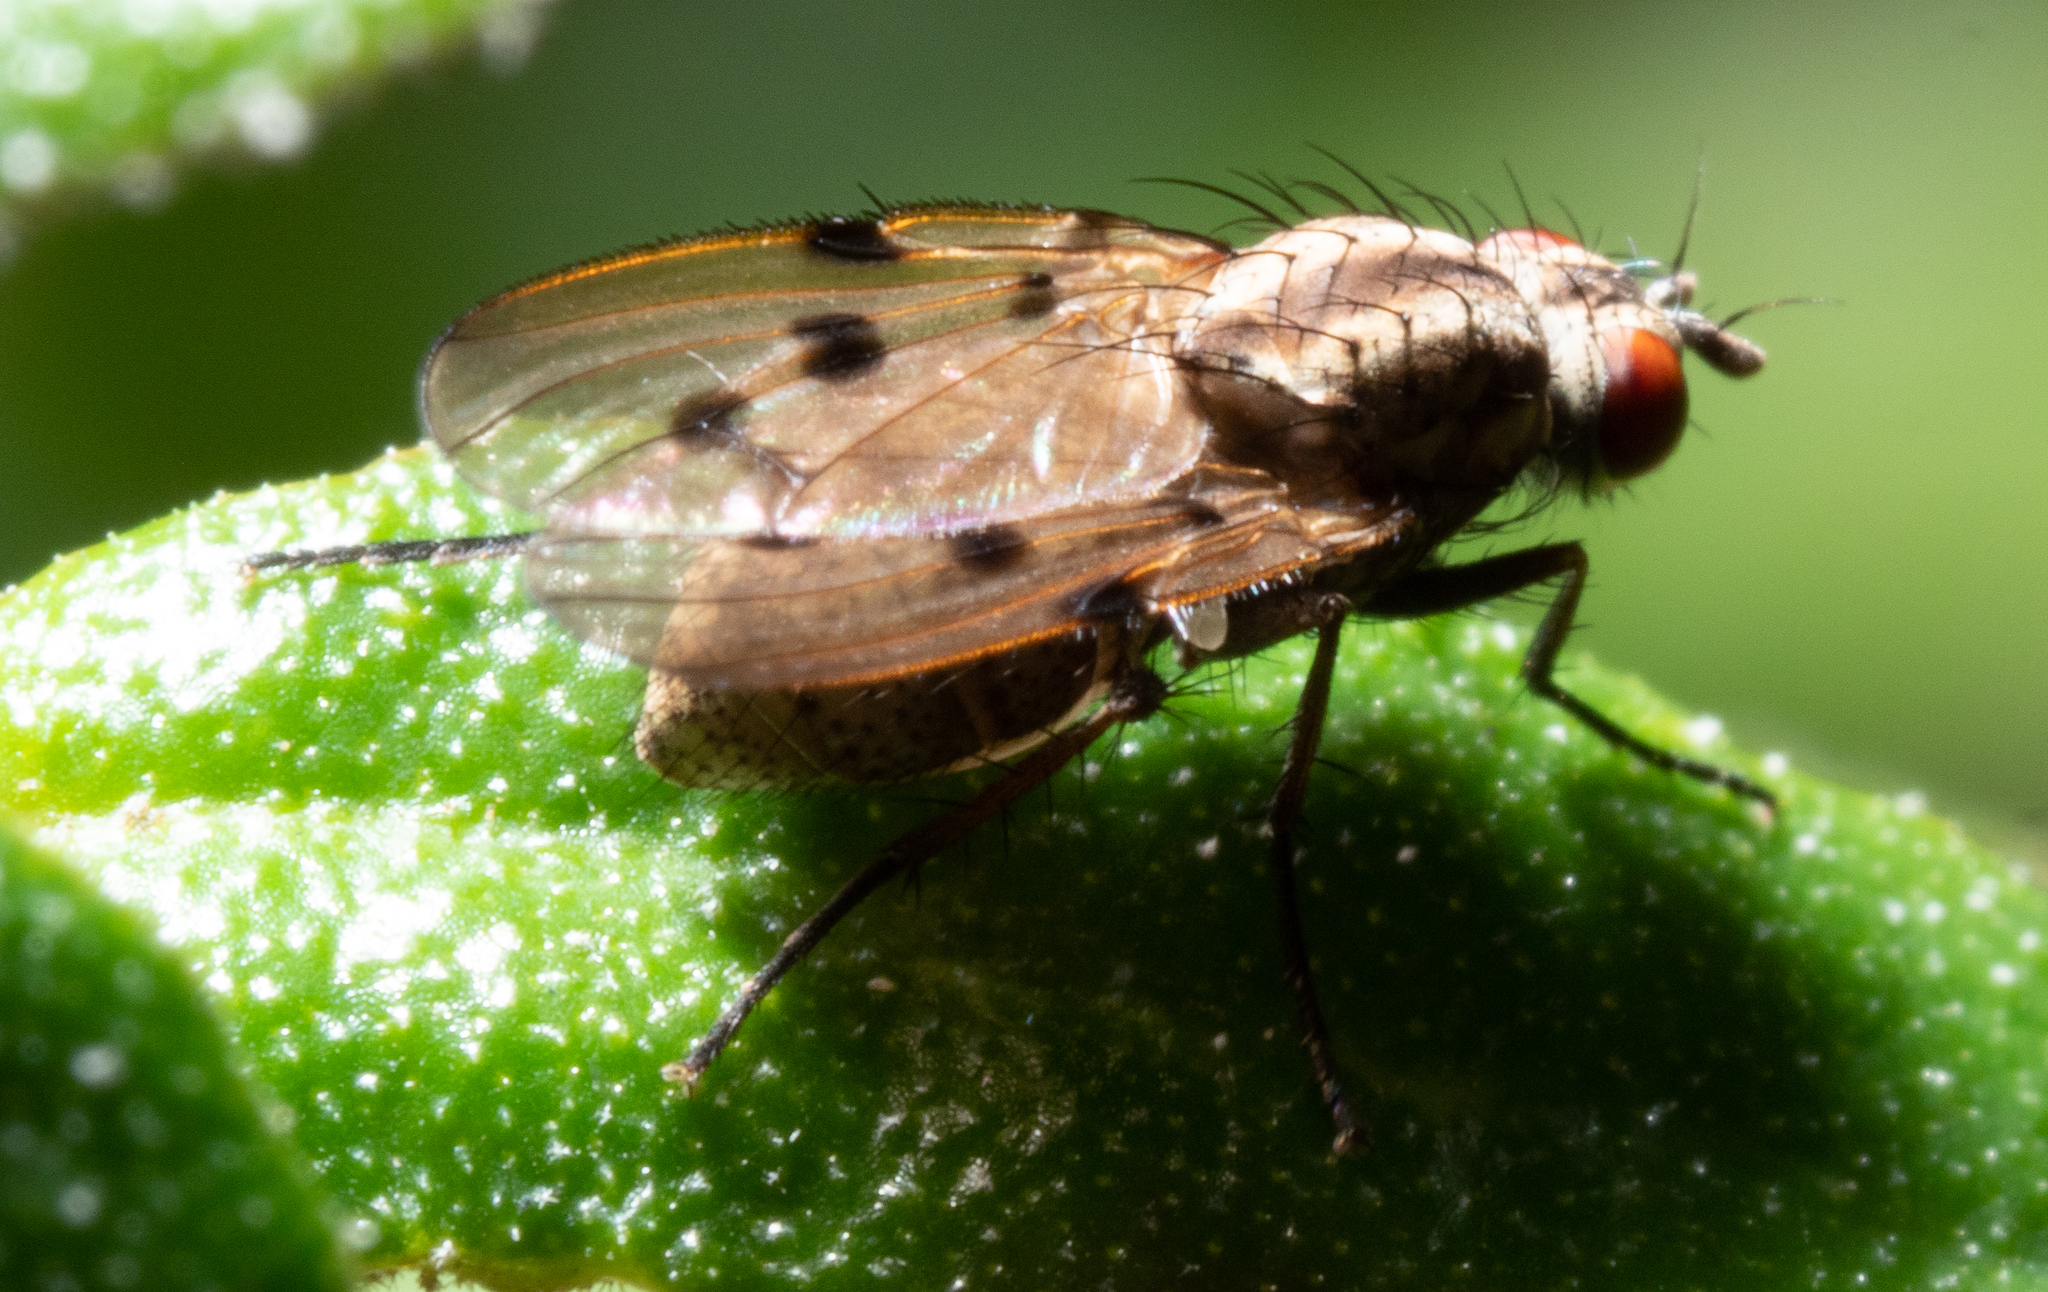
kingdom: Animalia
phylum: Arthropoda
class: Insecta
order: Diptera
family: Anthomyiidae
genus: Anthomyia
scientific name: Anthomyia punctipennis
